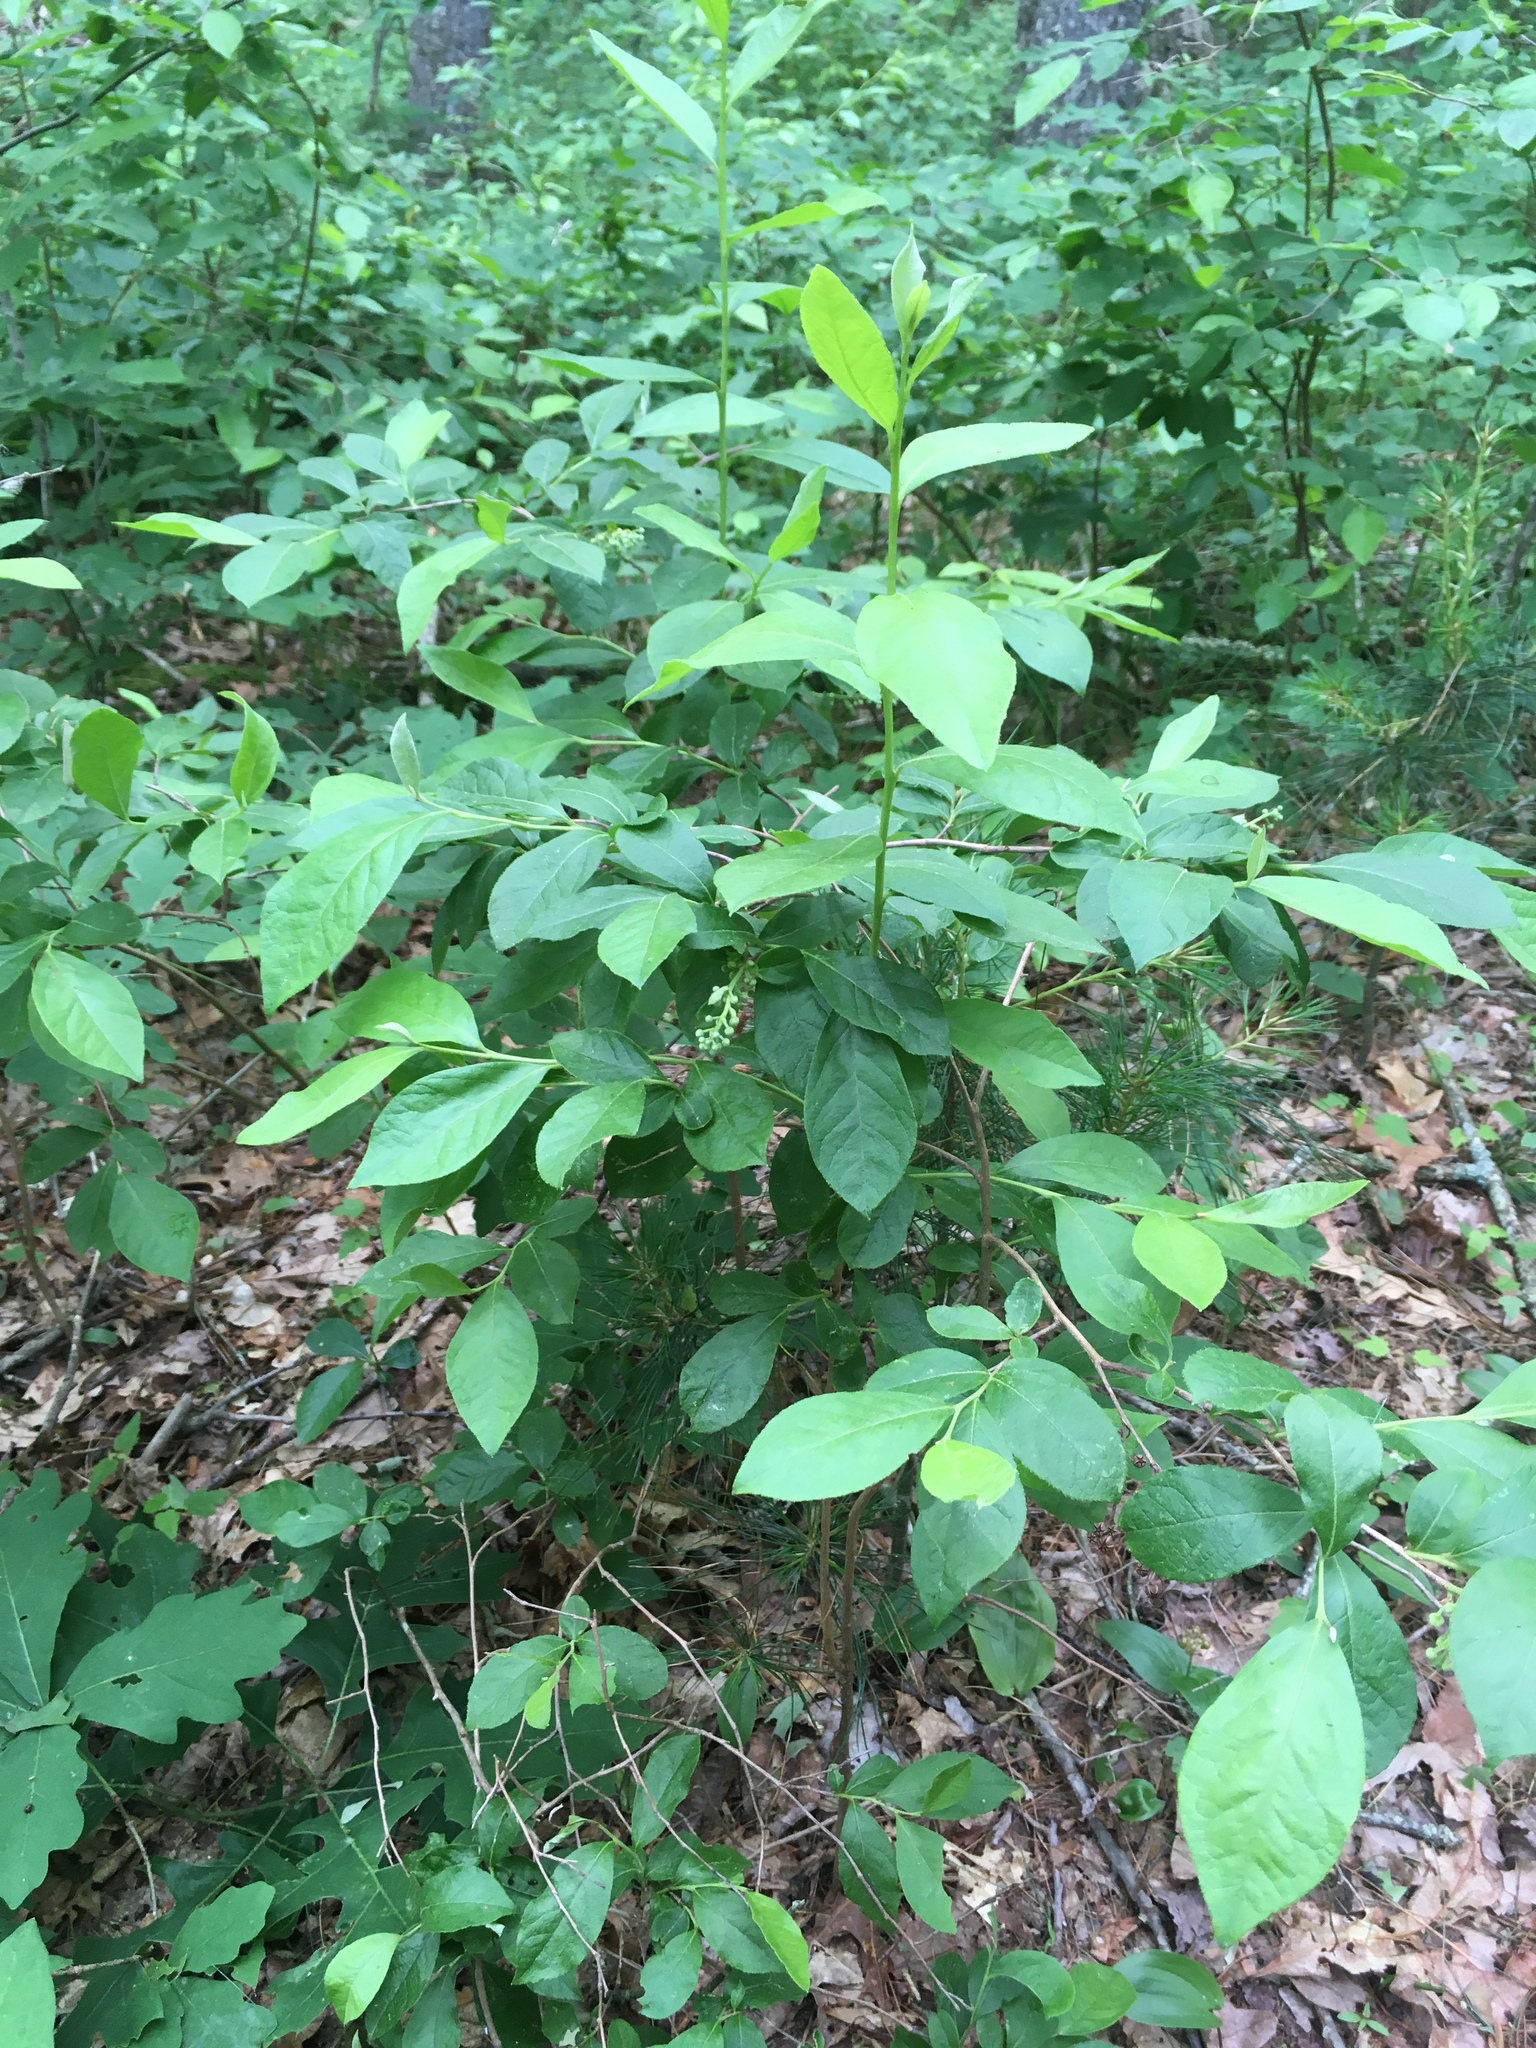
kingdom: Plantae
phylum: Tracheophyta
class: Magnoliopsida
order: Ericales
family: Ericaceae
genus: Lyonia
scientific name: Lyonia ligustrina
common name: Maleberry
